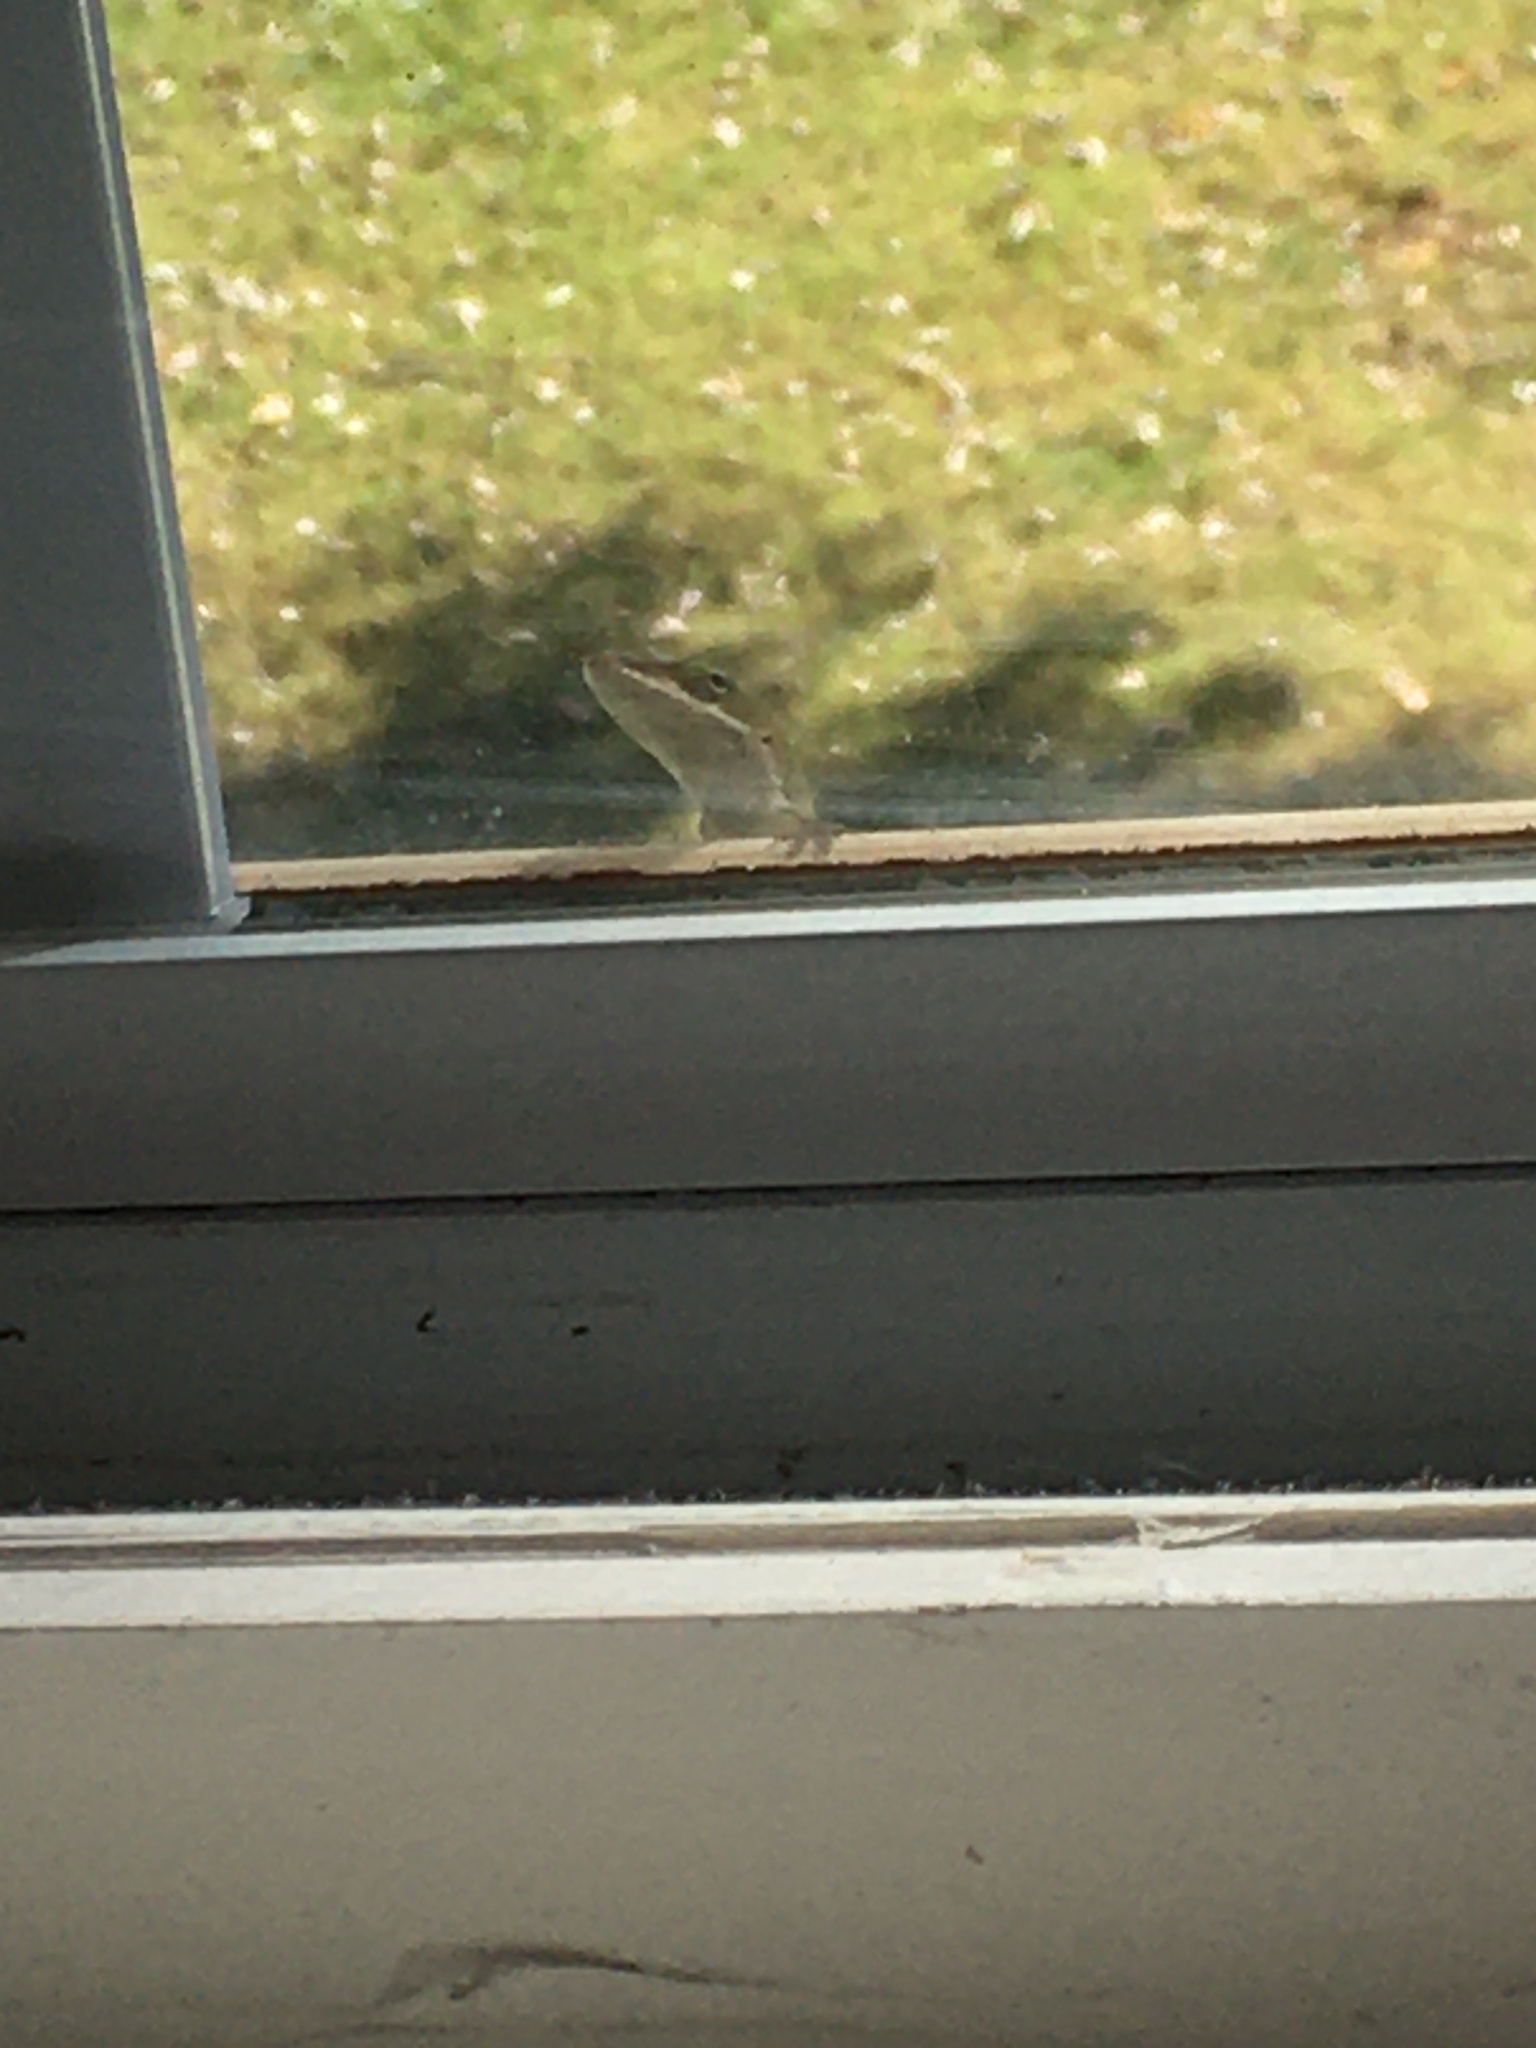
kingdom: Animalia
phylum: Chordata
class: Squamata
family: Dactyloidae
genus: Anolis
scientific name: Anolis carolinensis
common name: Green anole
